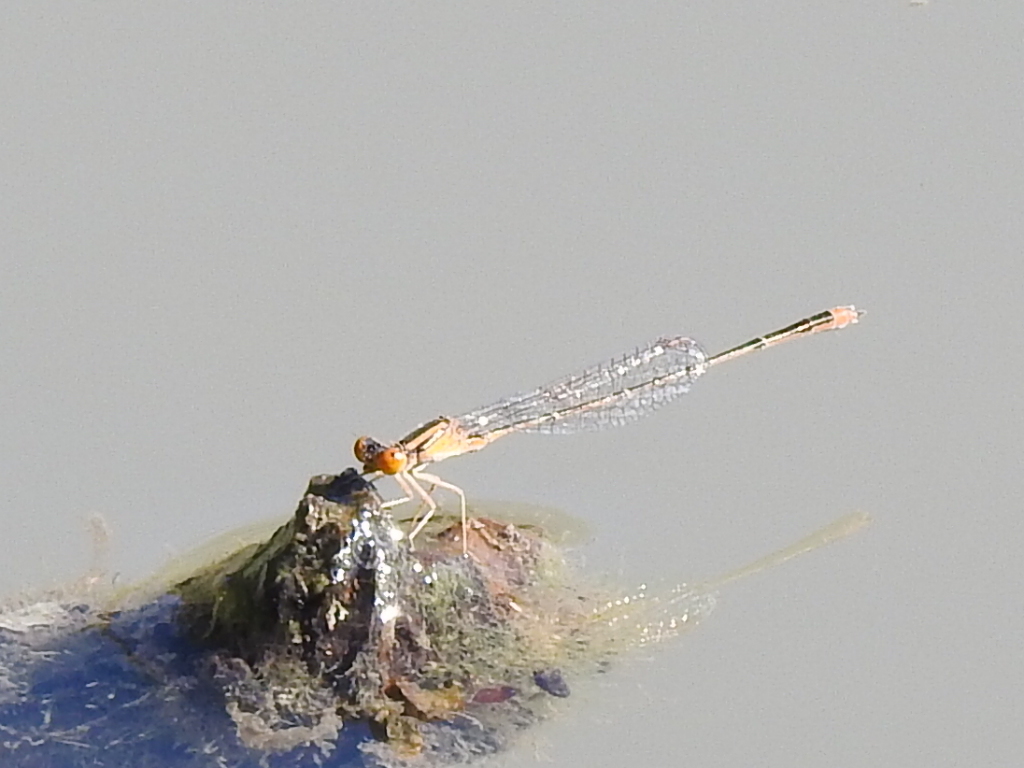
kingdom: Animalia
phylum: Arthropoda
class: Insecta
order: Odonata
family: Coenagrionidae
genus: Enallagma
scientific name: Enallagma signatum
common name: Orange bluet
